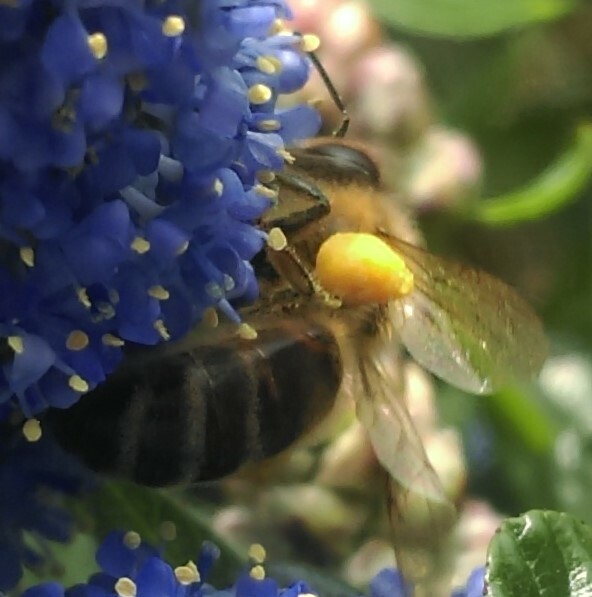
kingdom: Animalia
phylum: Arthropoda
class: Insecta
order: Hymenoptera
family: Apidae
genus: Apis
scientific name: Apis mellifera
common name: Honey bee
